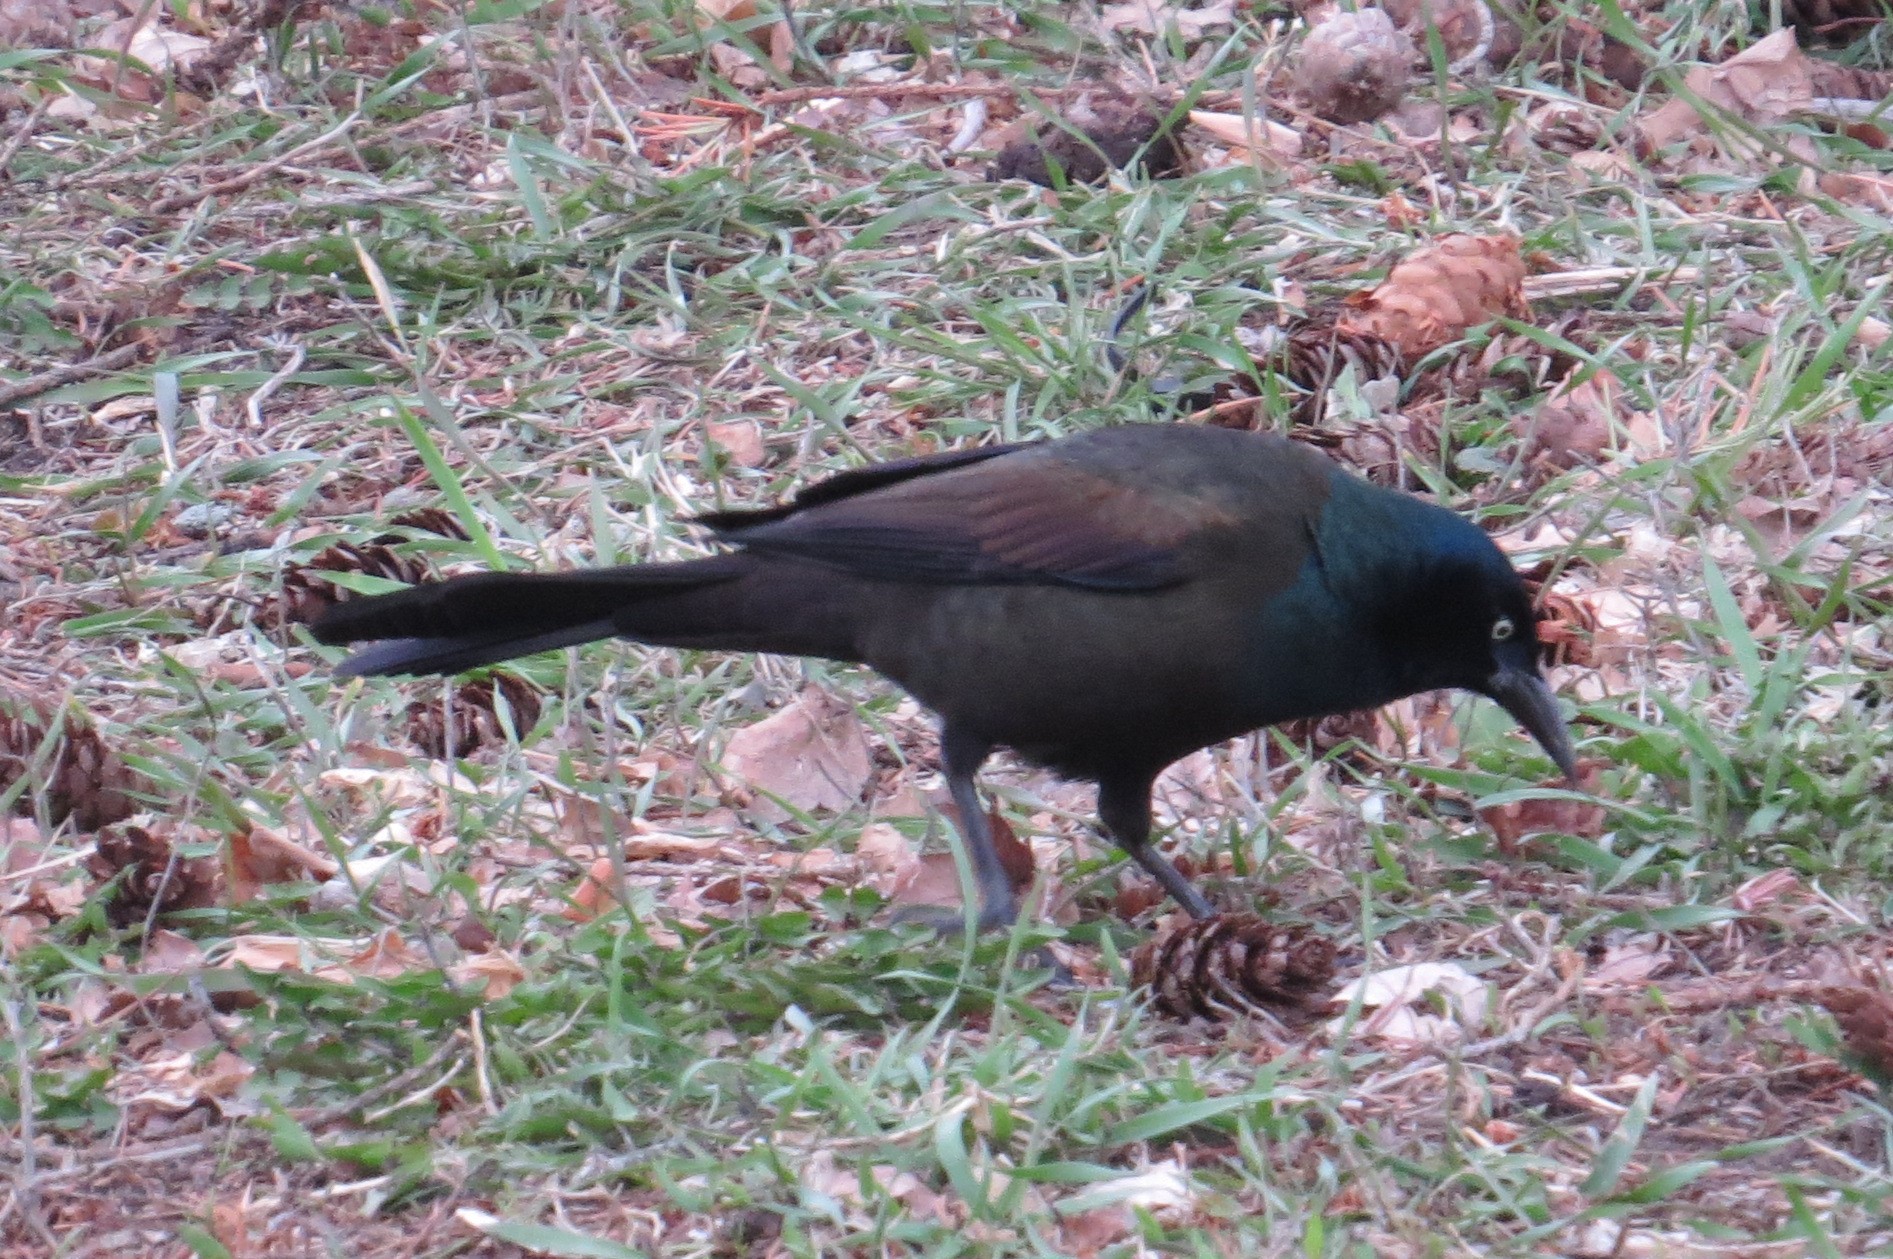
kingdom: Animalia
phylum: Chordata
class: Aves
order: Passeriformes
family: Icteridae
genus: Quiscalus
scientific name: Quiscalus quiscula
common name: Common grackle
